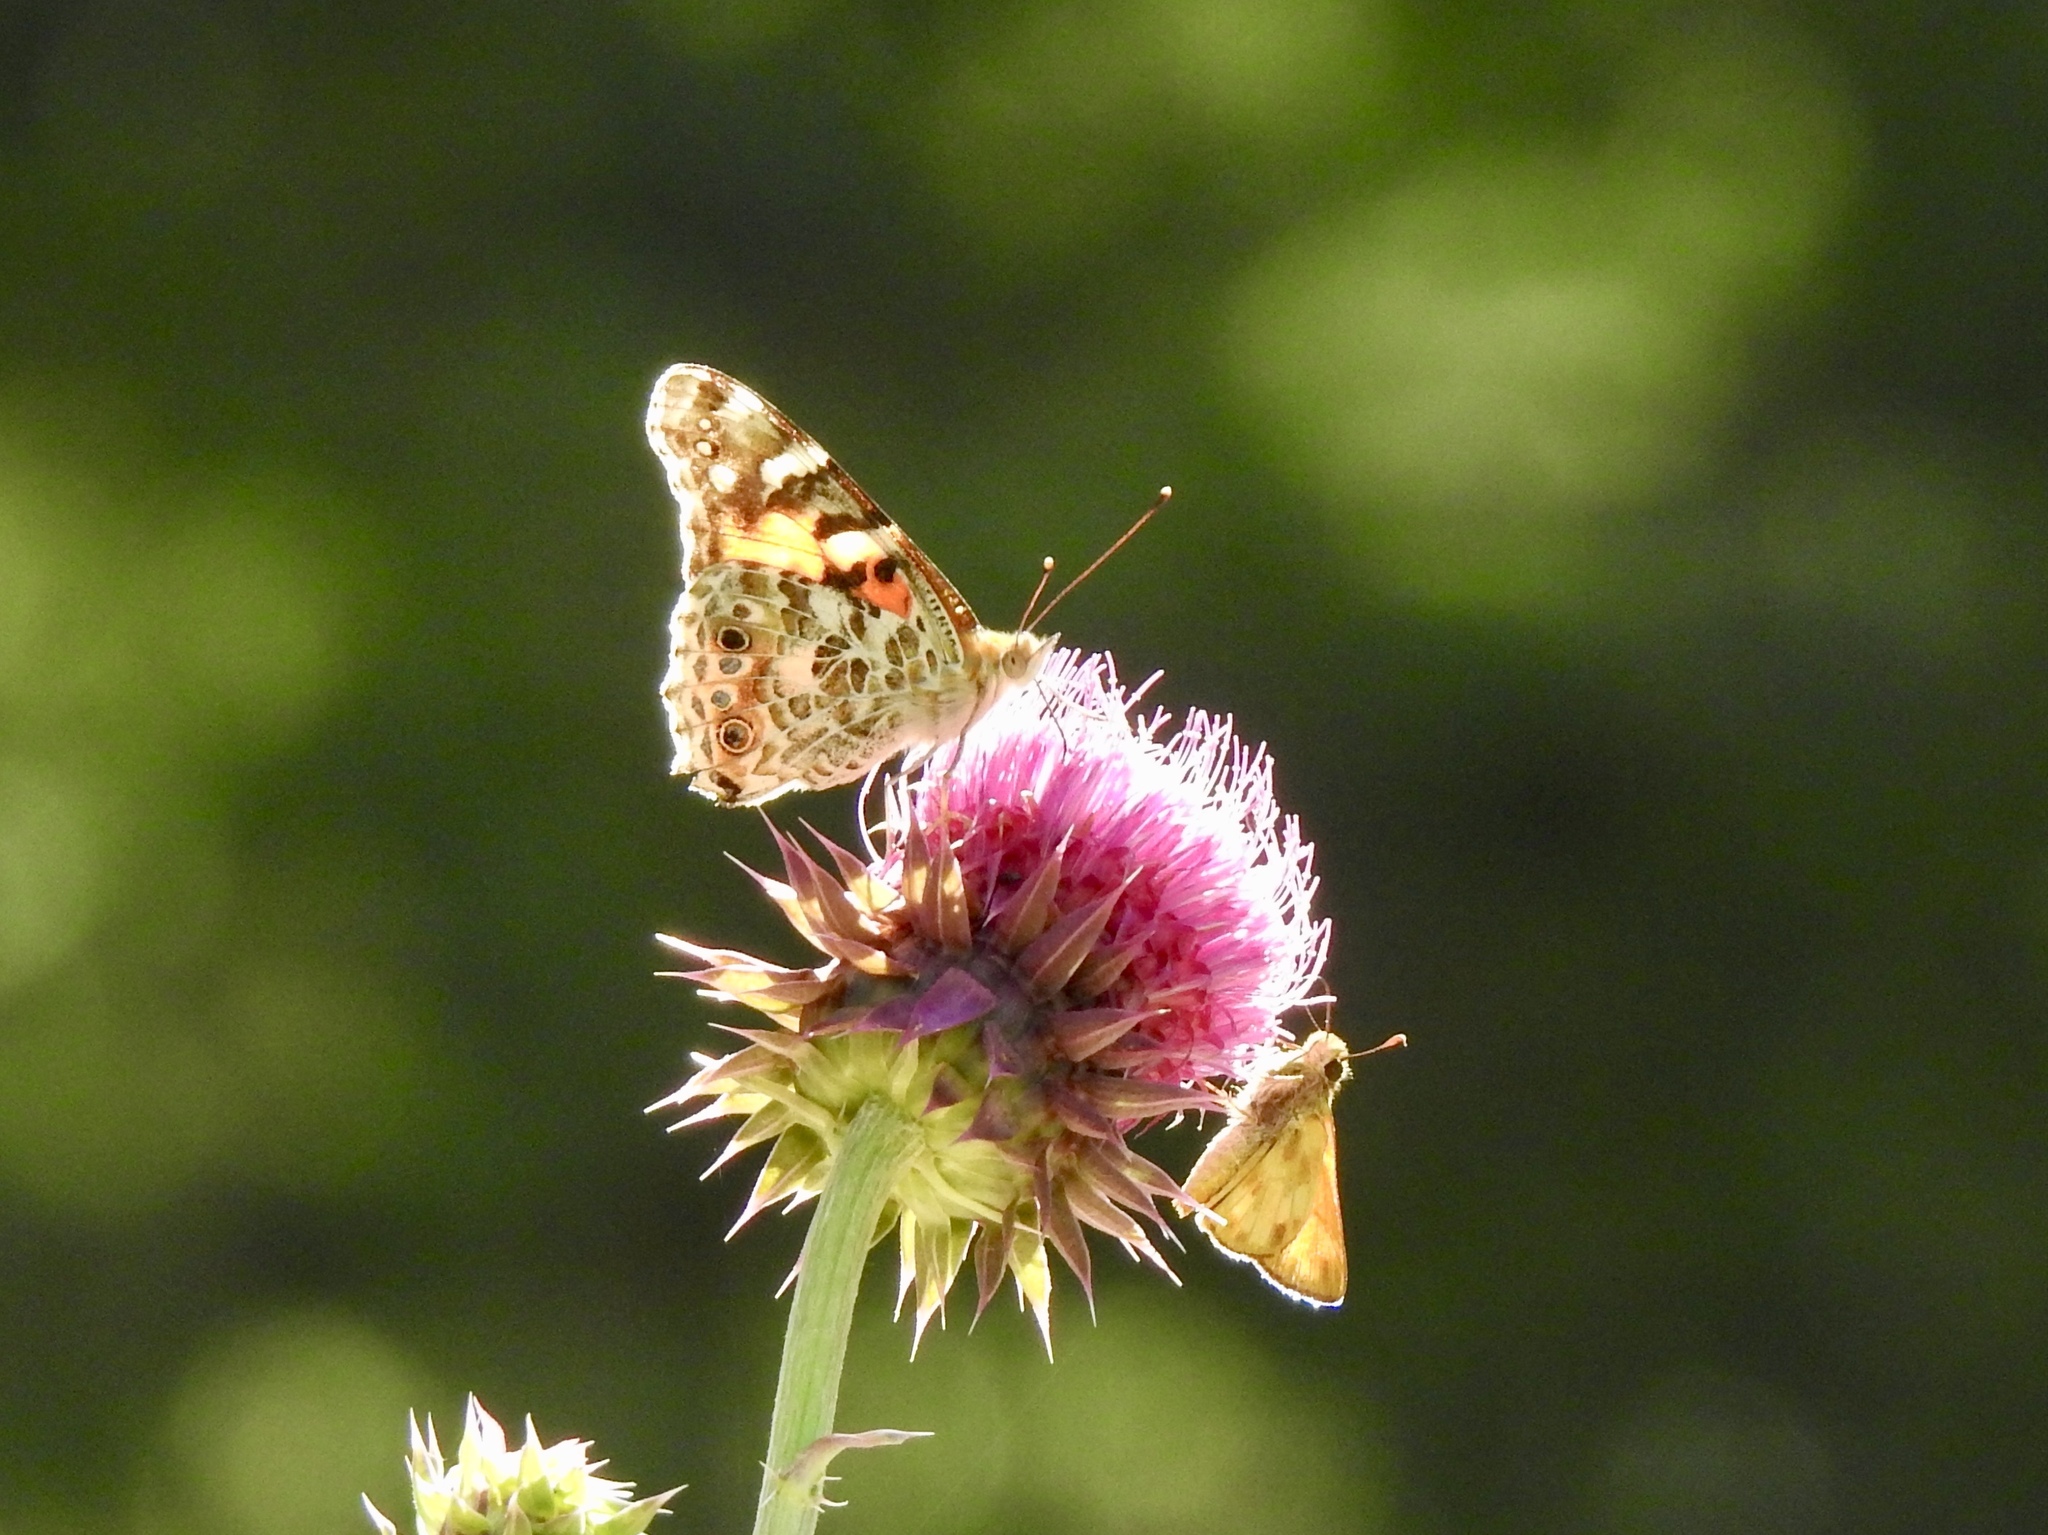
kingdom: Animalia
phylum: Arthropoda
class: Insecta
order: Lepidoptera
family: Nymphalidae
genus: Vanessa
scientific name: Vanessa cardui
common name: Painted lady
